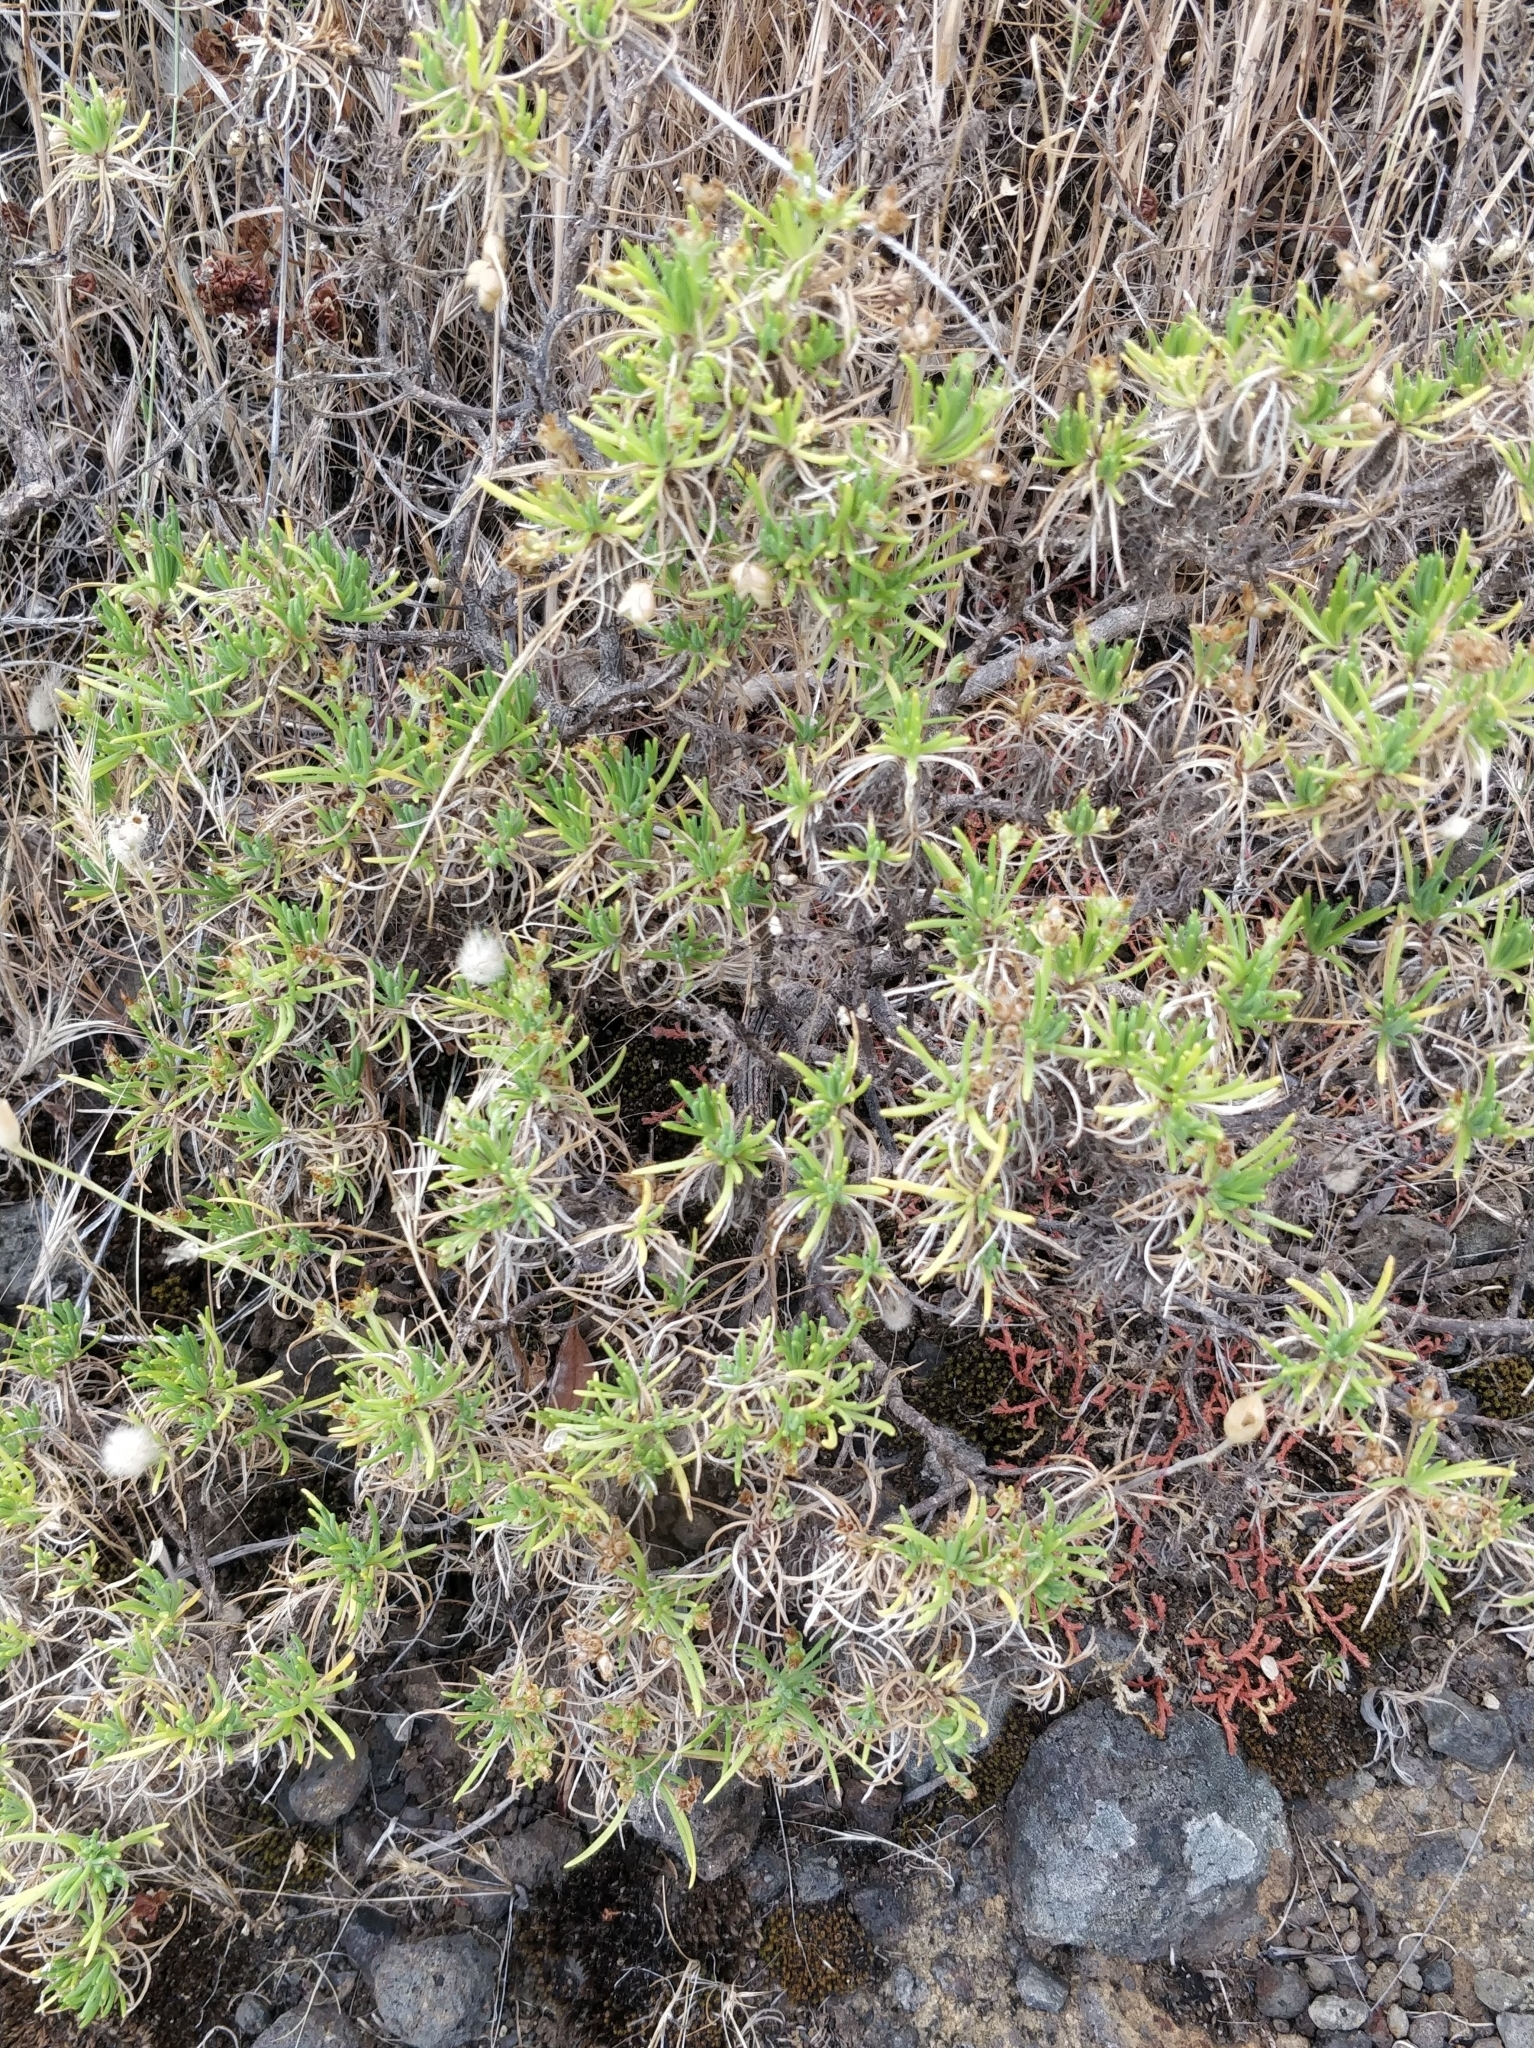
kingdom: Plantae
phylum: Tracheophyta
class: Magnoliopsida
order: Lamiales
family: Plantaginaceae
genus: Plantago
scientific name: Plantago arborescens
